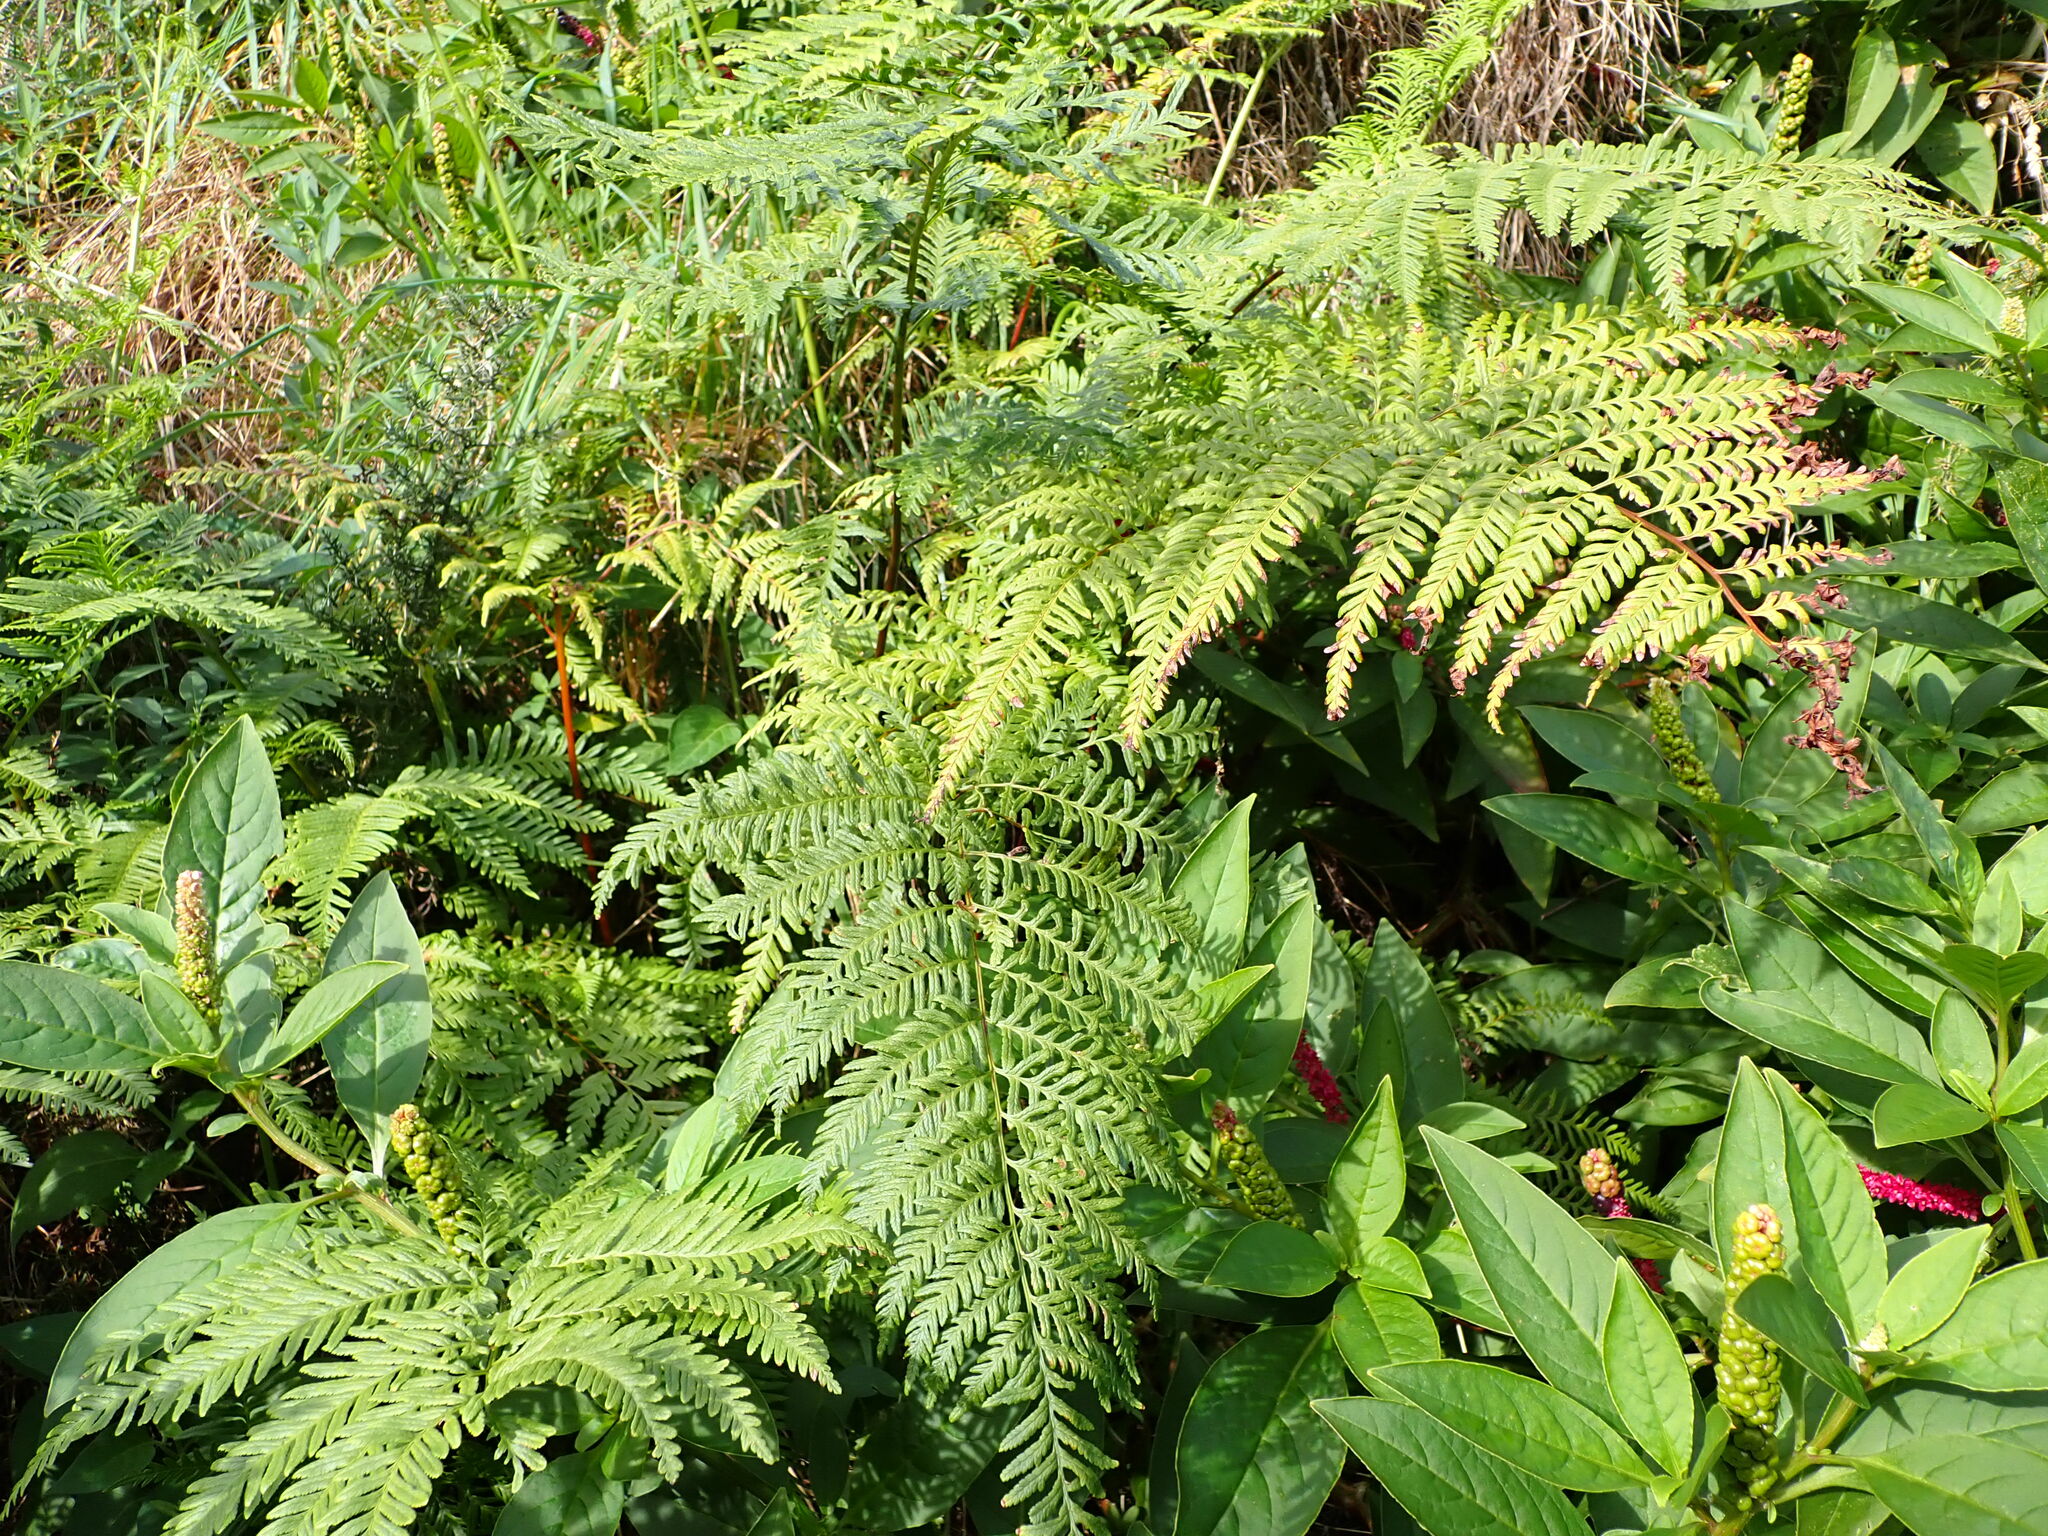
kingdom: Plantae
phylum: Tracheophyta
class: Polypodiopsida
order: Polypodiales
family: Pteridaceae
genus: Pteris
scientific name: Pteris tremula
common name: Australian brake
